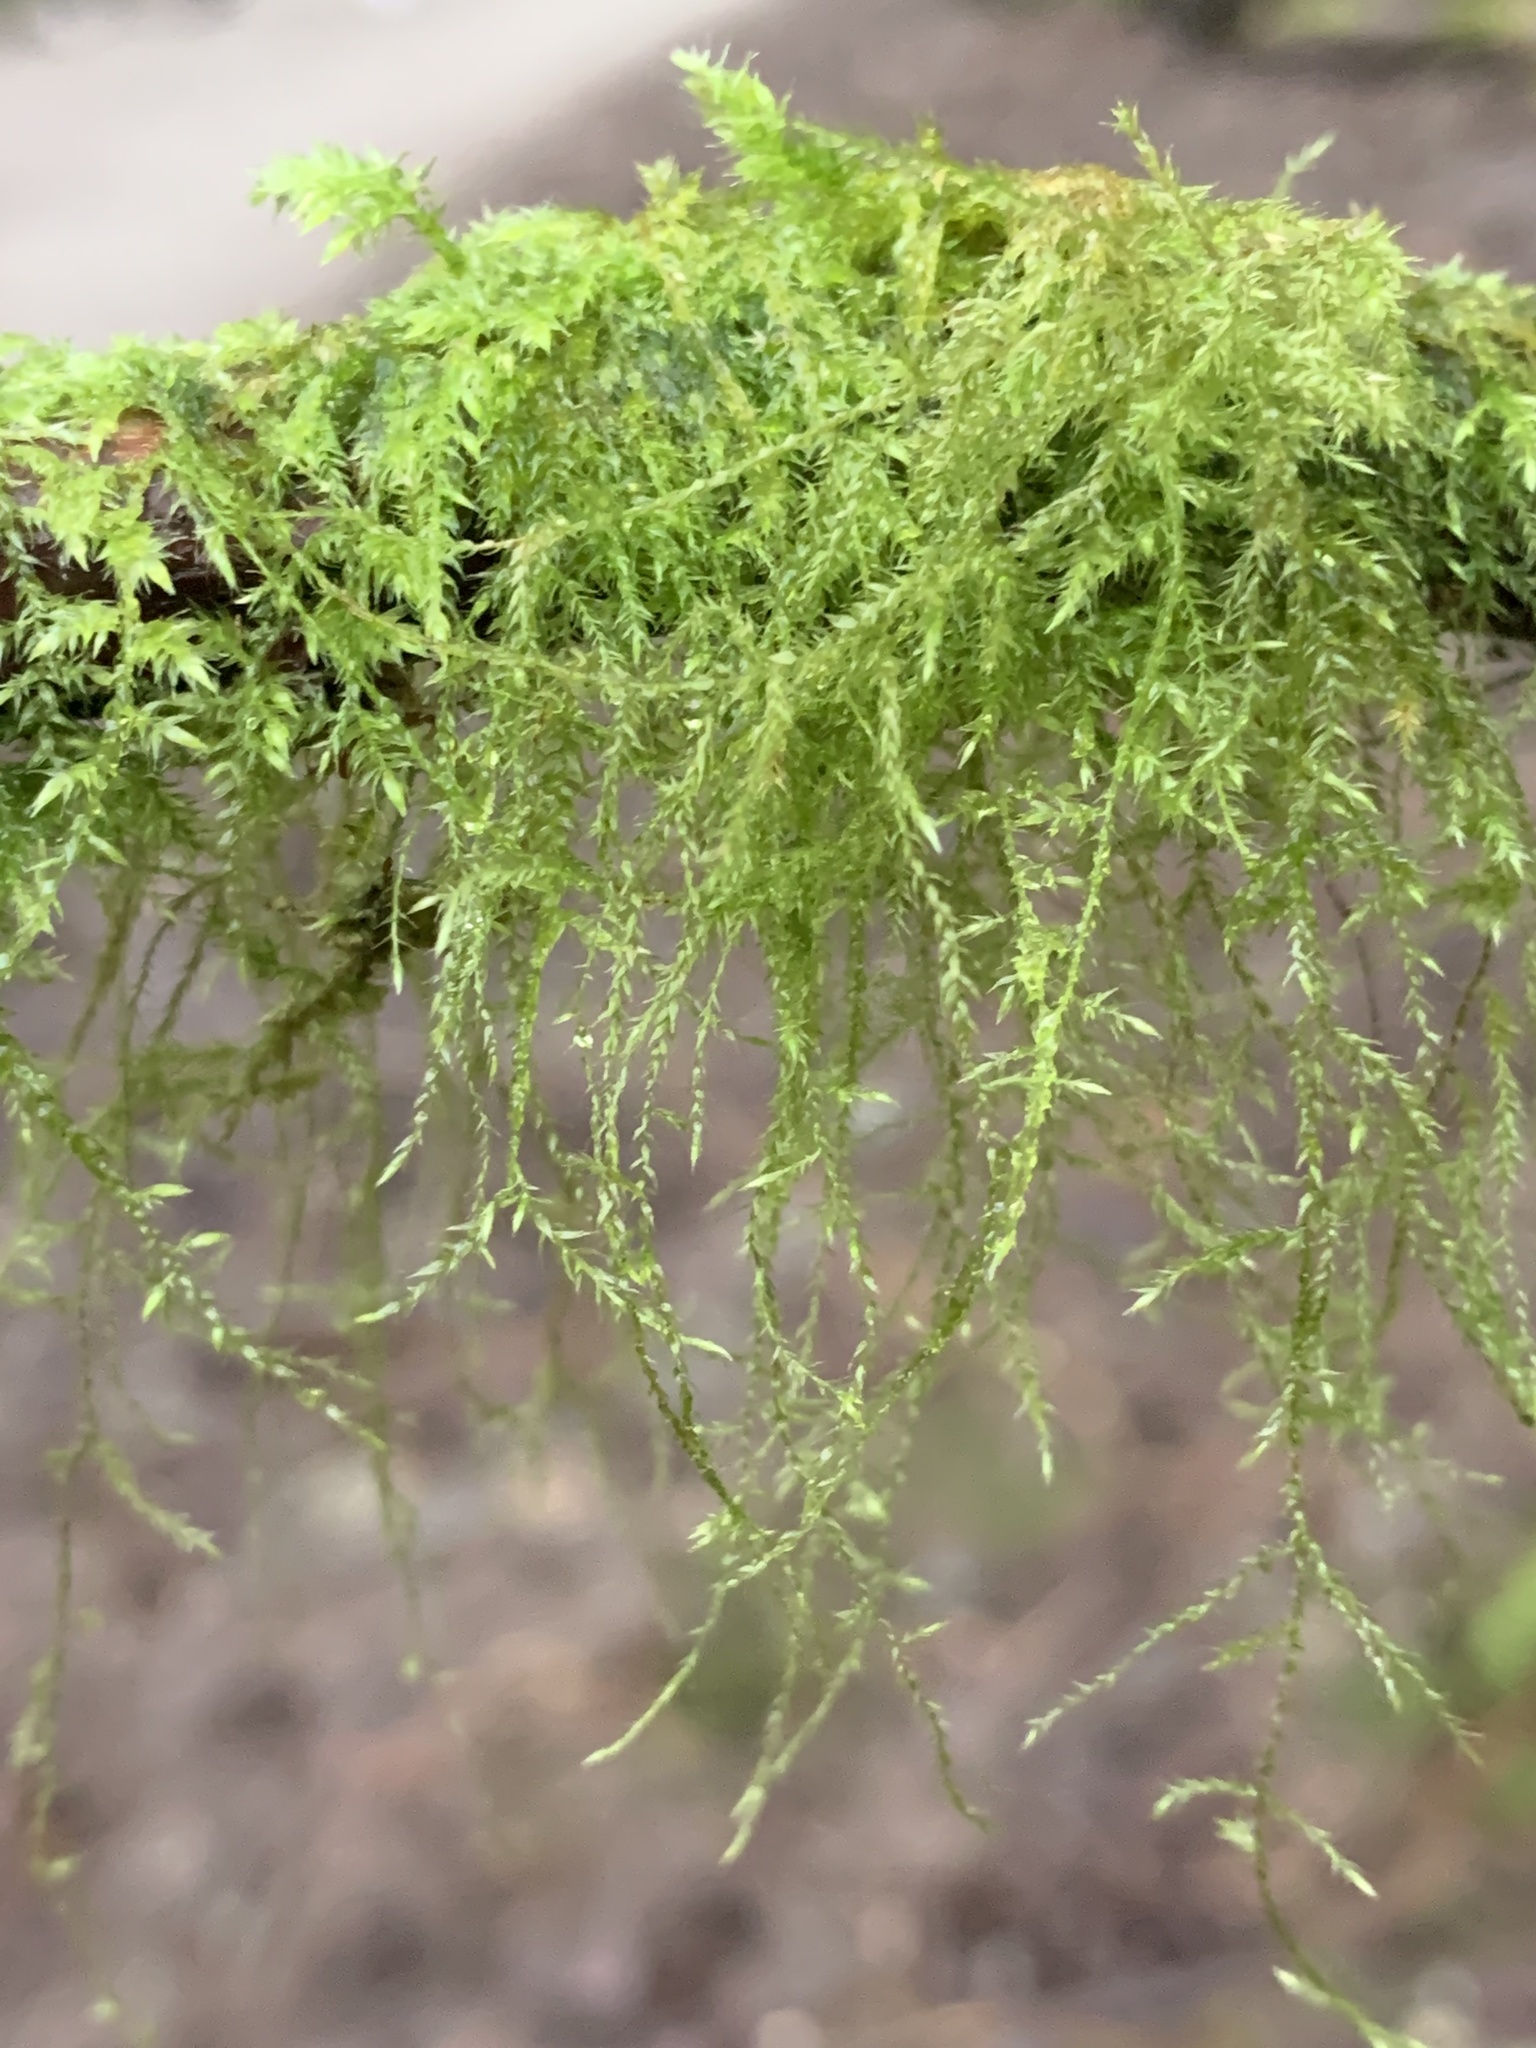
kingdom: Plantae
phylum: Bryophyta
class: Bryopsida
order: Hypnales
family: Lembophyllaceae
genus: Pseudisothecium
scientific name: Pseudisothecium stoloniferum
